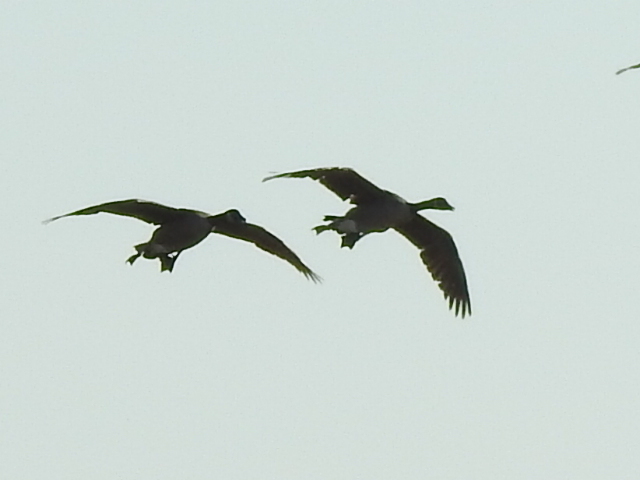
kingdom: Animalia
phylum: Chordata
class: Aves
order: Anseriformes
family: Anatidae
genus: Branta
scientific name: Branta canadensis
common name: Canada goose
